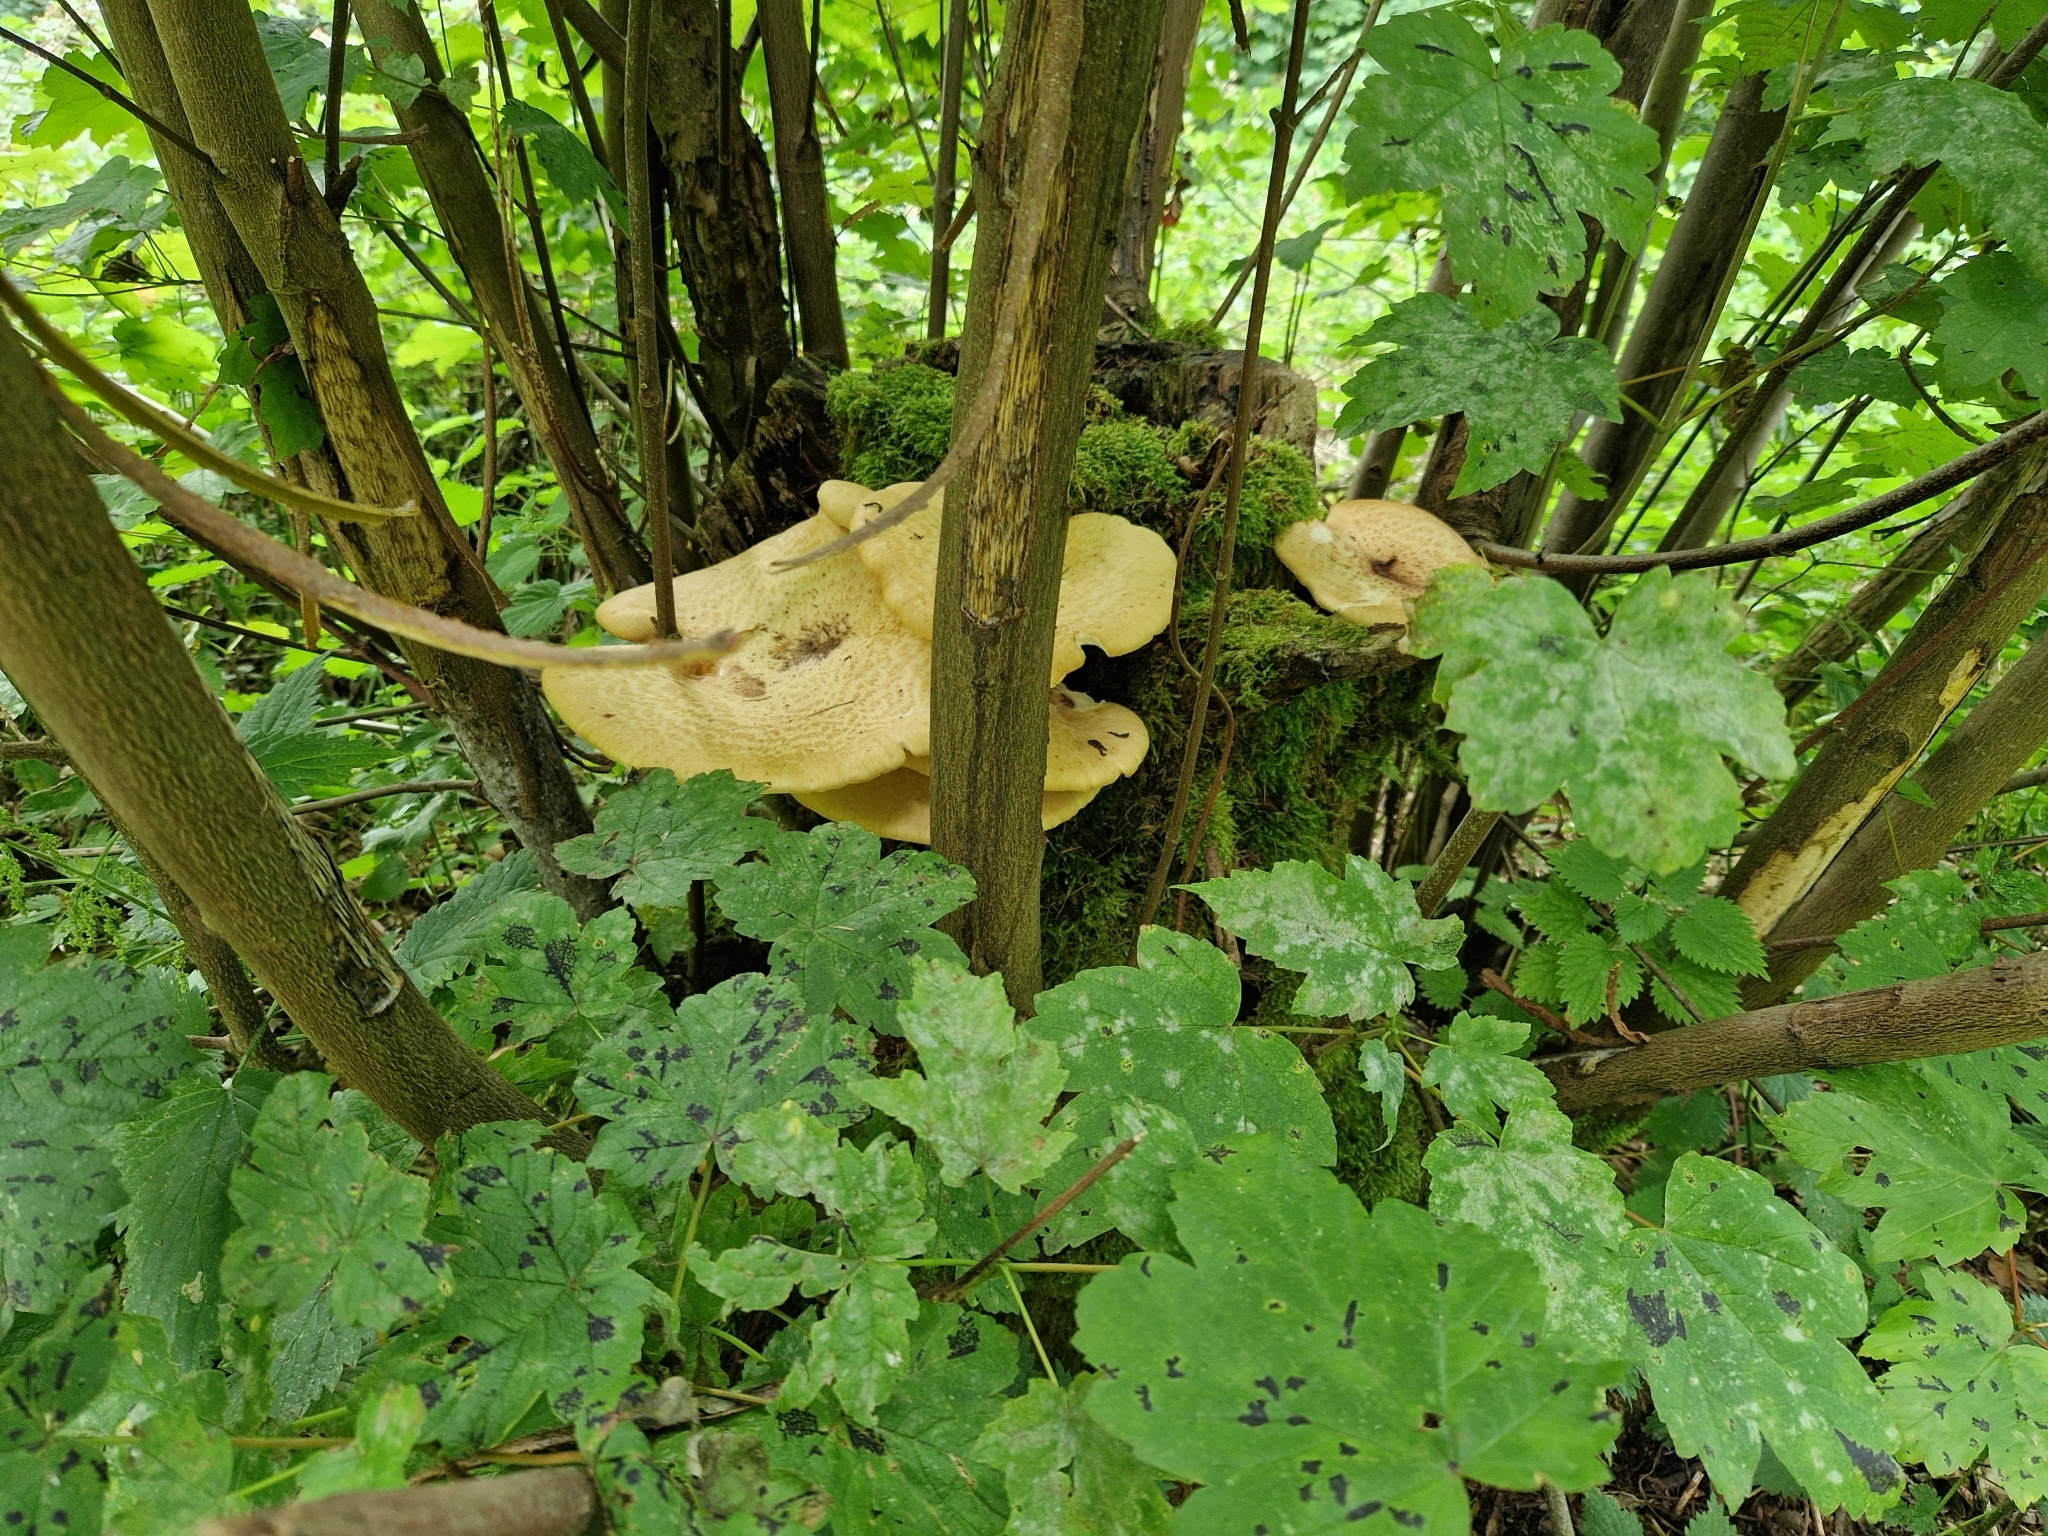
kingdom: Fungi
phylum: Basidiomycota
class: Agaricomycetes
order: Polyporales
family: Polyporaceae
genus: Cerioporus
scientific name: Cerioporus squamosus
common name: Dryad's saddle
